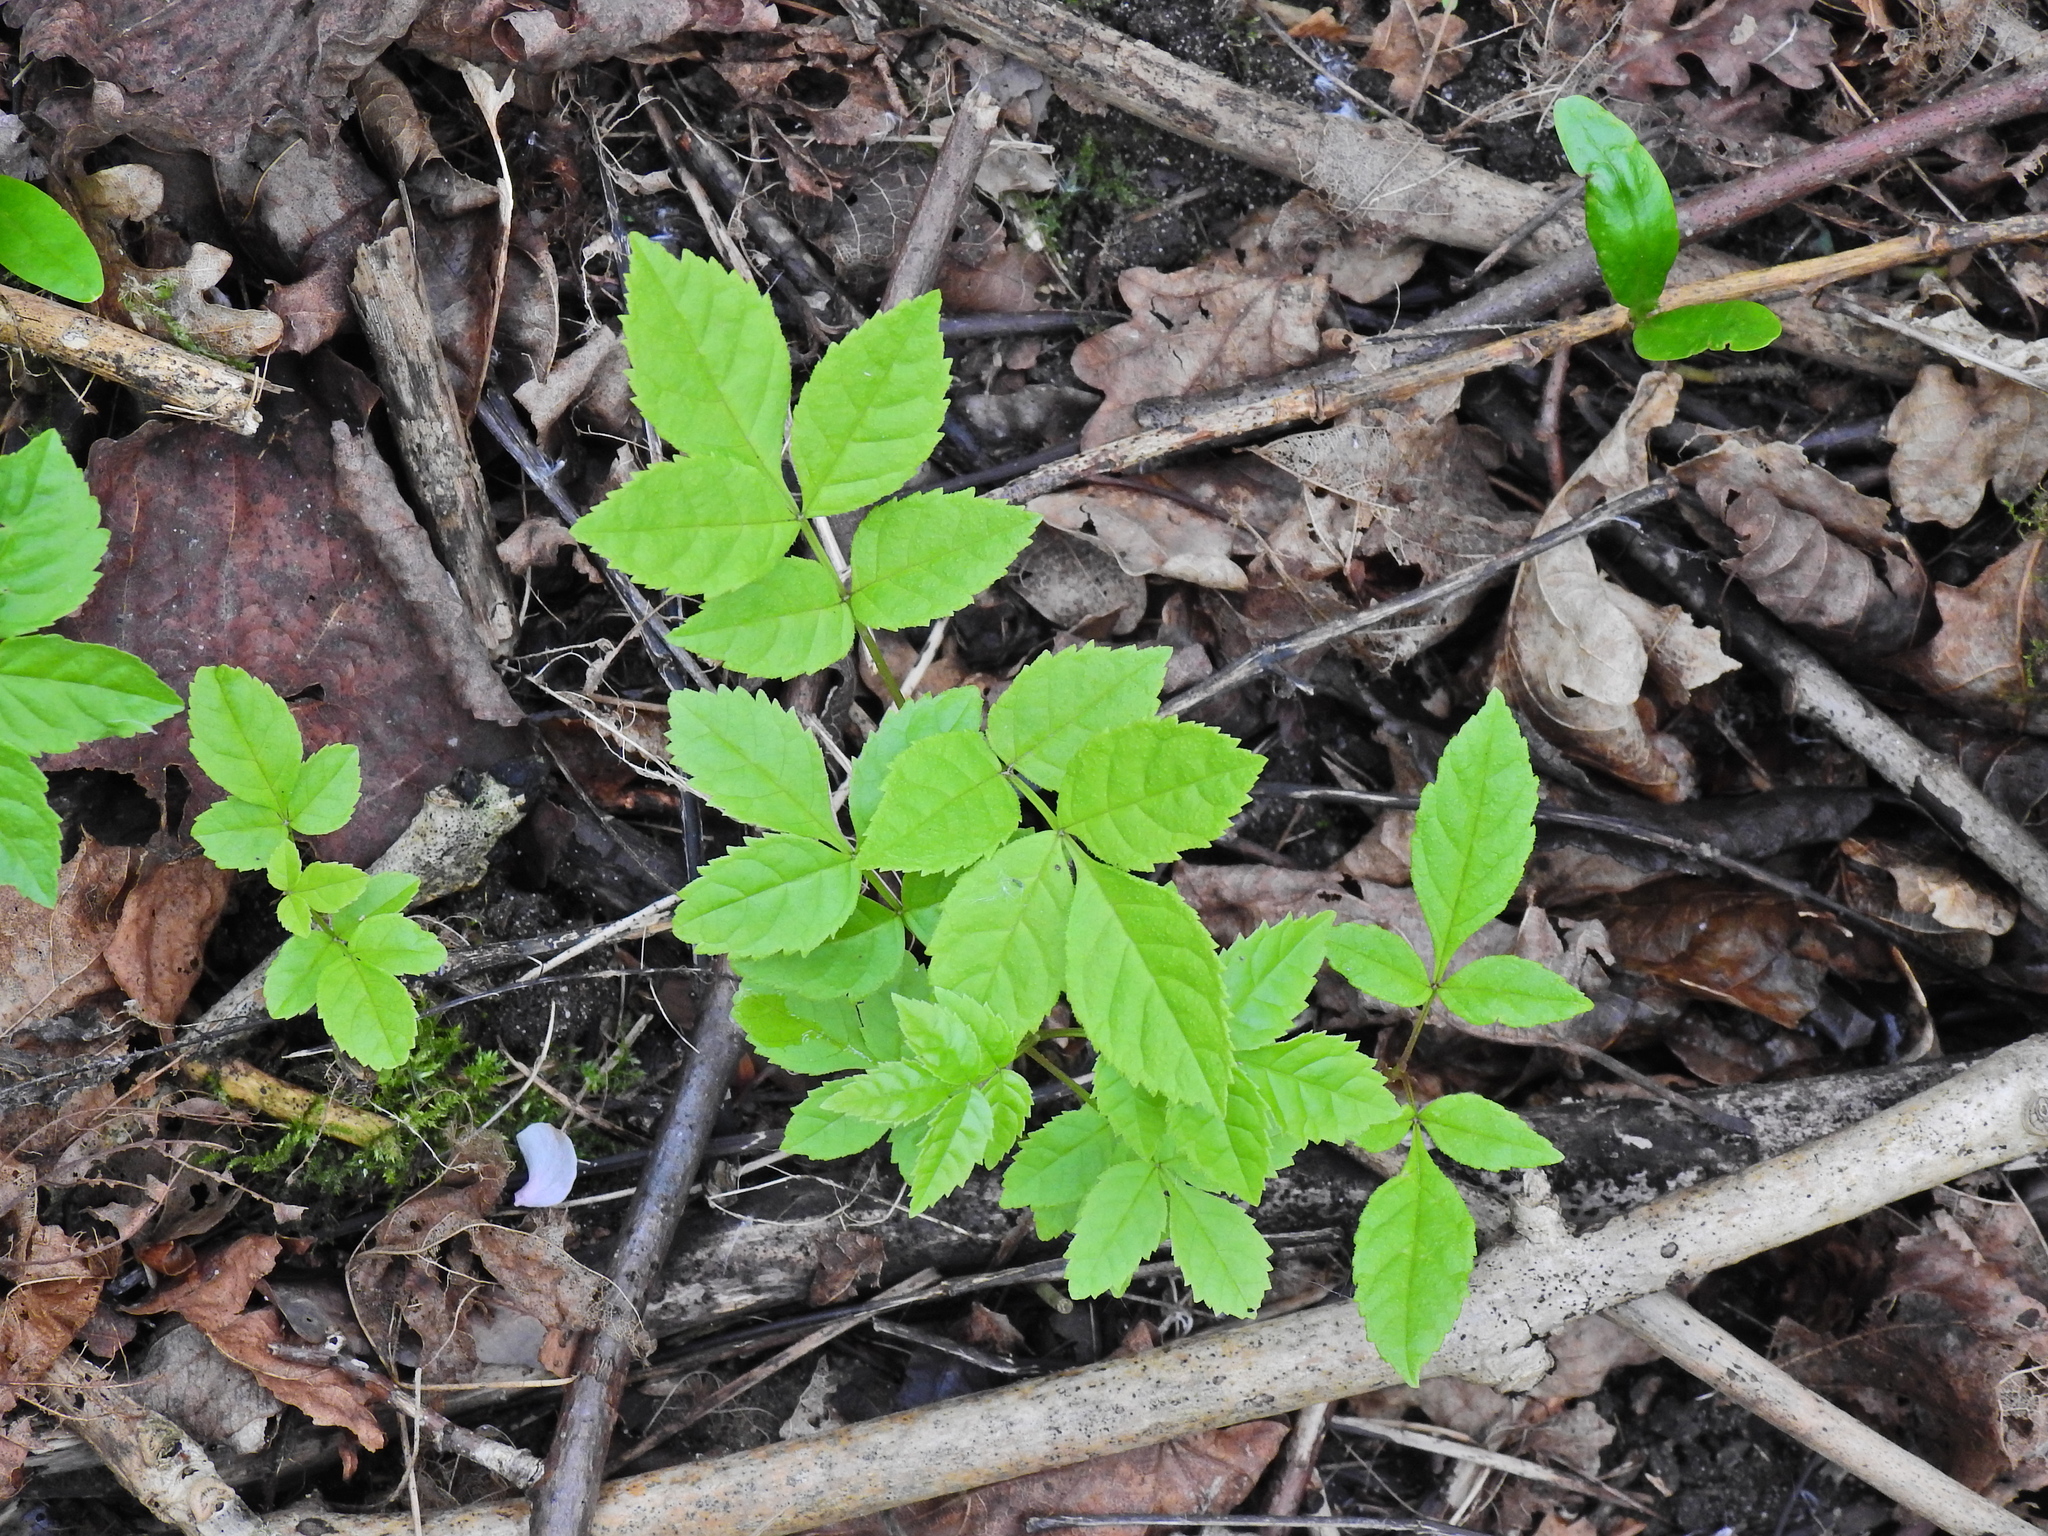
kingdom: Plantae
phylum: Tracheophyta
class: Magnoliopsida
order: Apiales
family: Apiaceae
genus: Aegopodium
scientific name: Aegopodium podagraria
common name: Ground-elder
